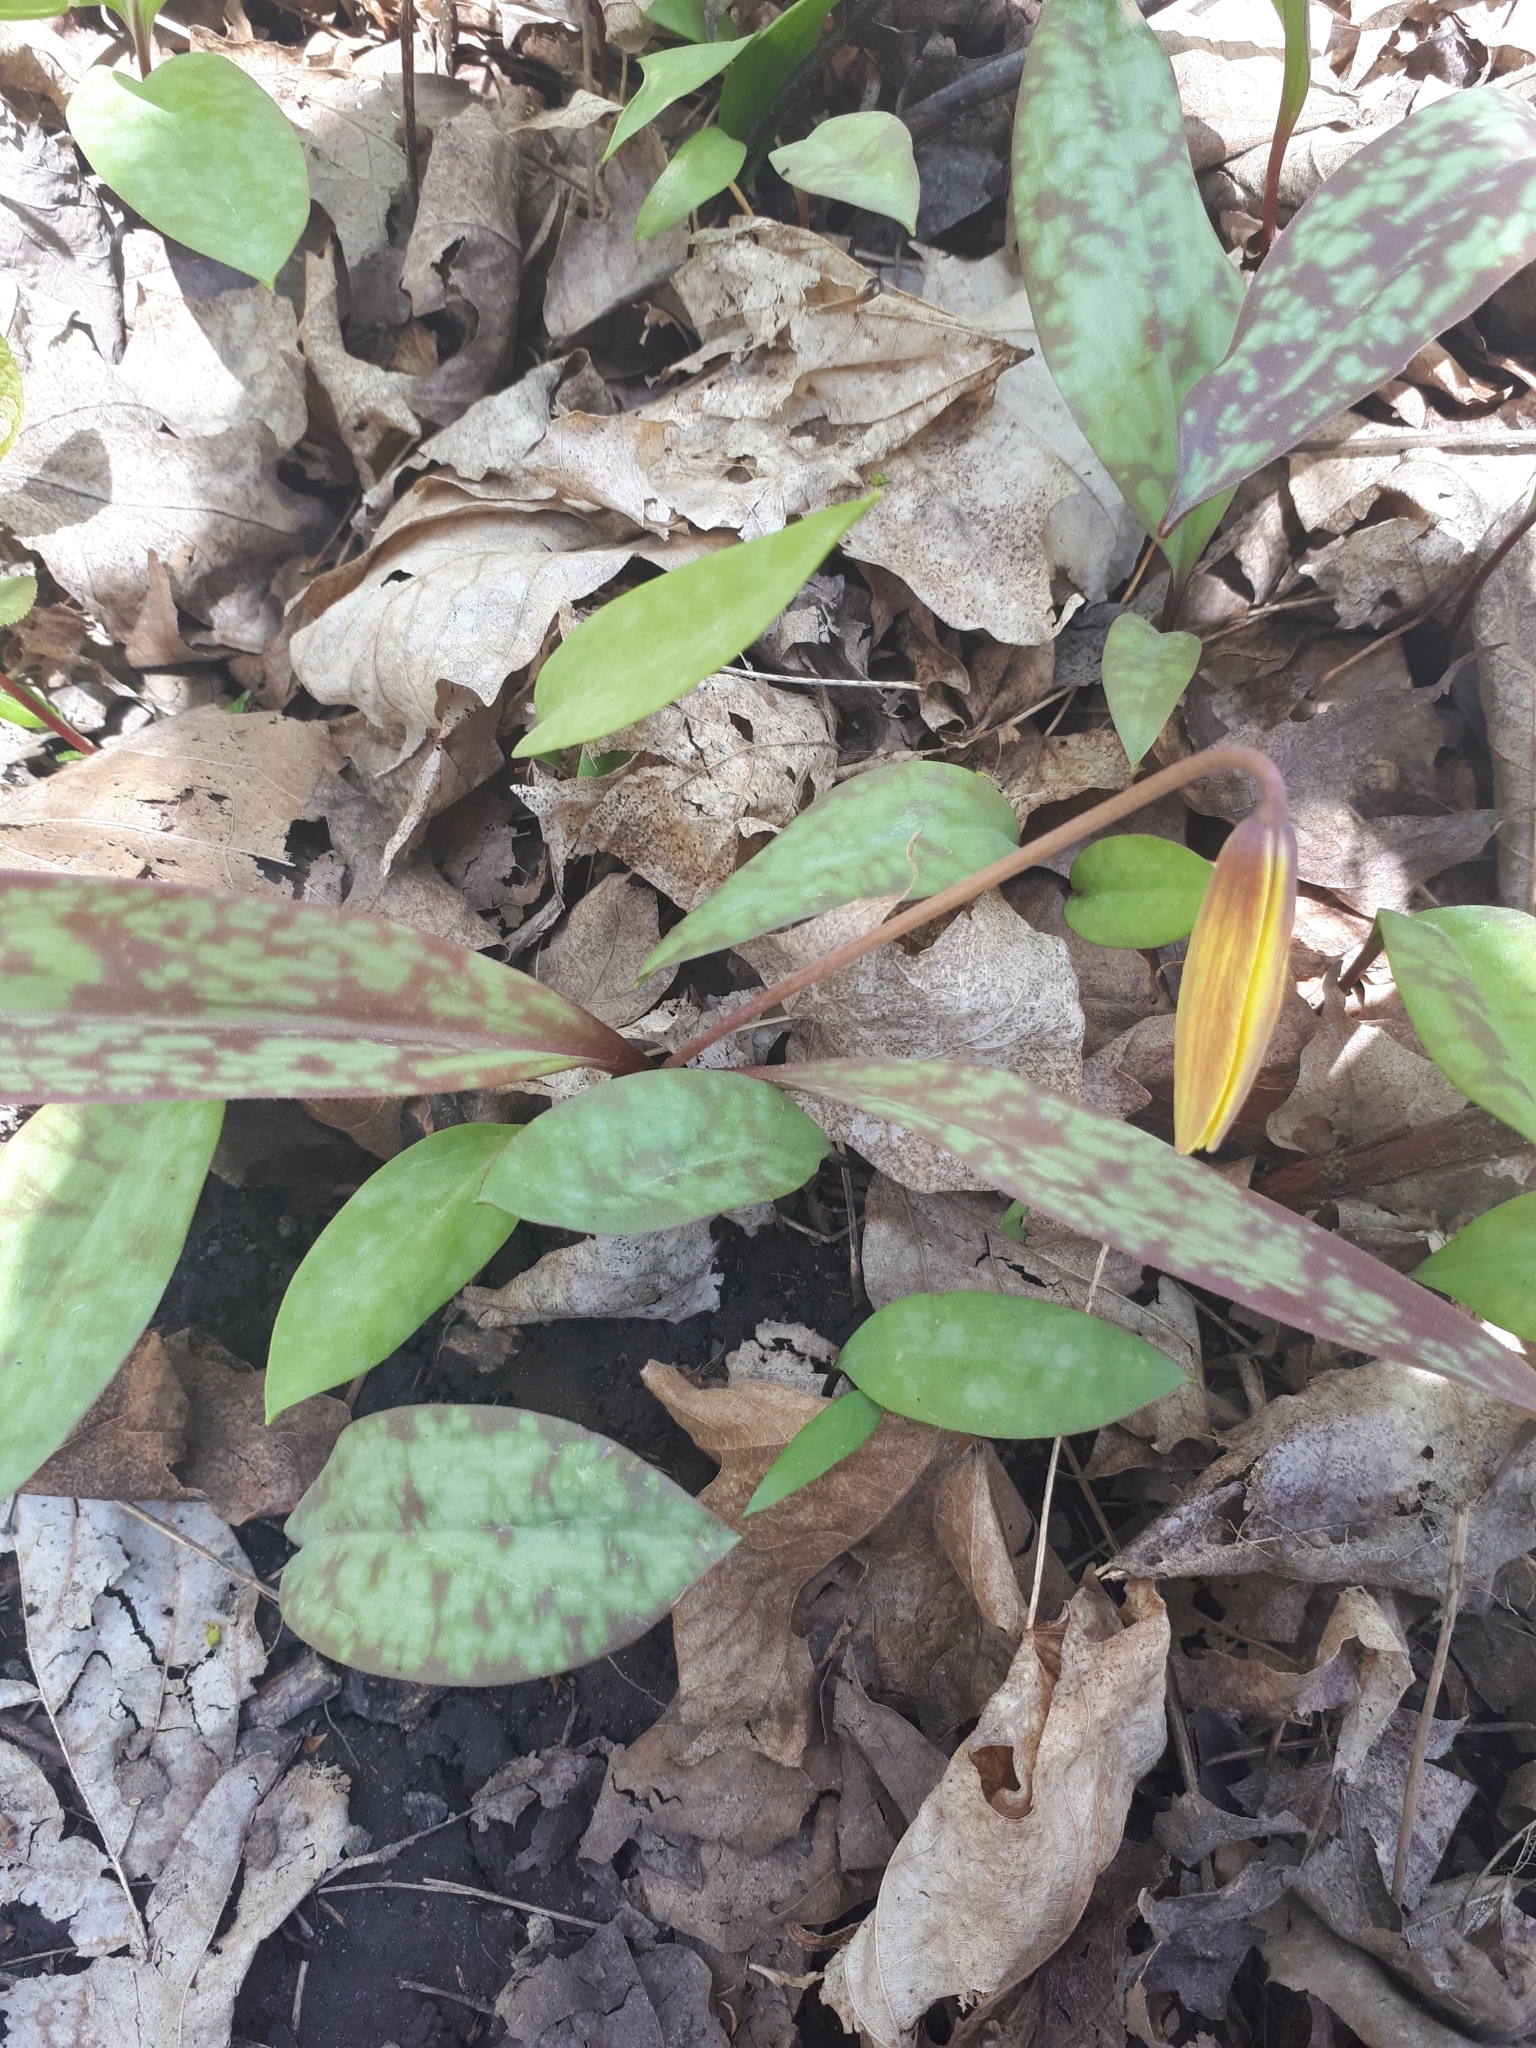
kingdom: Plantae
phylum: Tracheophyta
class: Liliopsida
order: Liliales
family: Liliaceae
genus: Erythronium
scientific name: Erythronium americanum
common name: Yellow adder's-tongue
